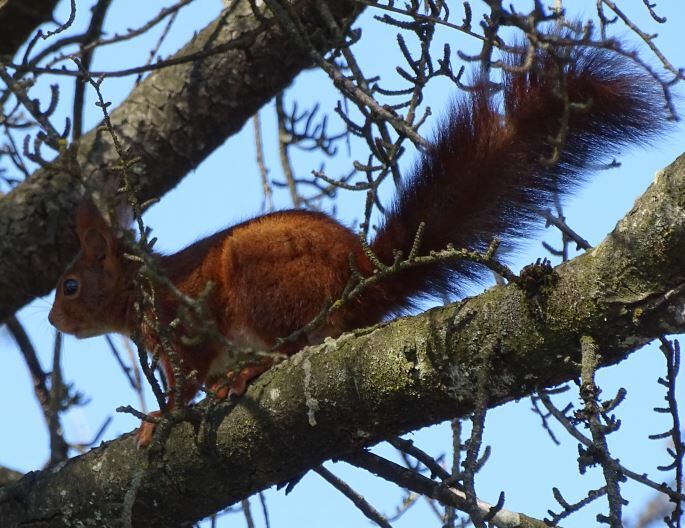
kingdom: Animalia
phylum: Chordata
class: Mammalia
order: Rodentia
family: Sciuridae
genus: Sciurus
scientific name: Sciurus vulgaris
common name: Eurasian red squirrel
